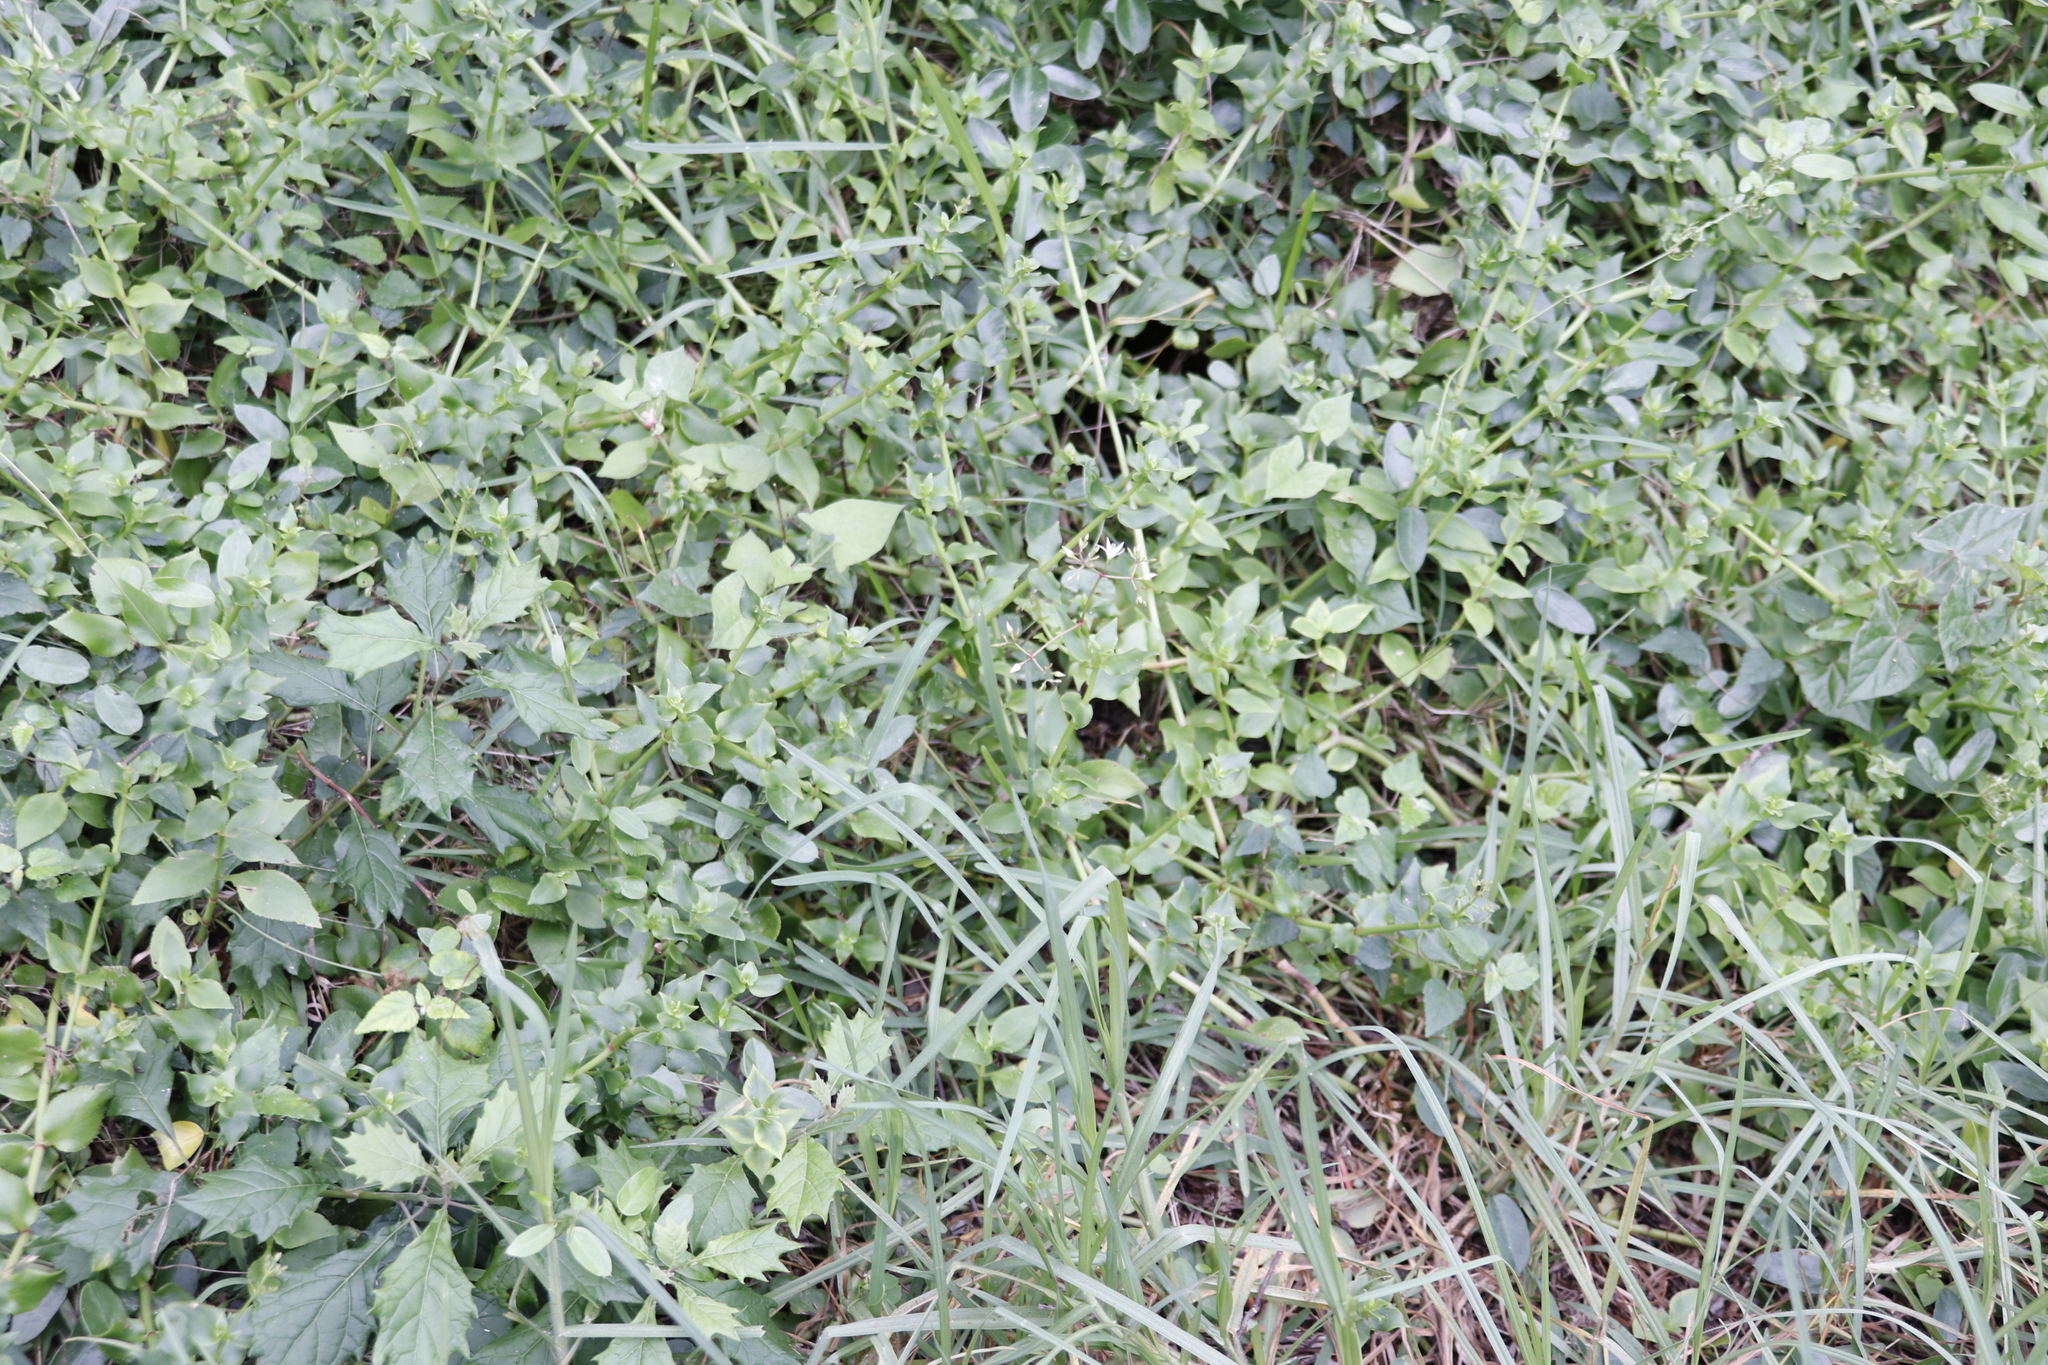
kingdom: Plantae
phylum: Tracheophyta
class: Magnoliopsida
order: Saxifragales
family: Crassulaceae
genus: Crassula
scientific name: Crassula sarmentosa
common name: Jade-tree
